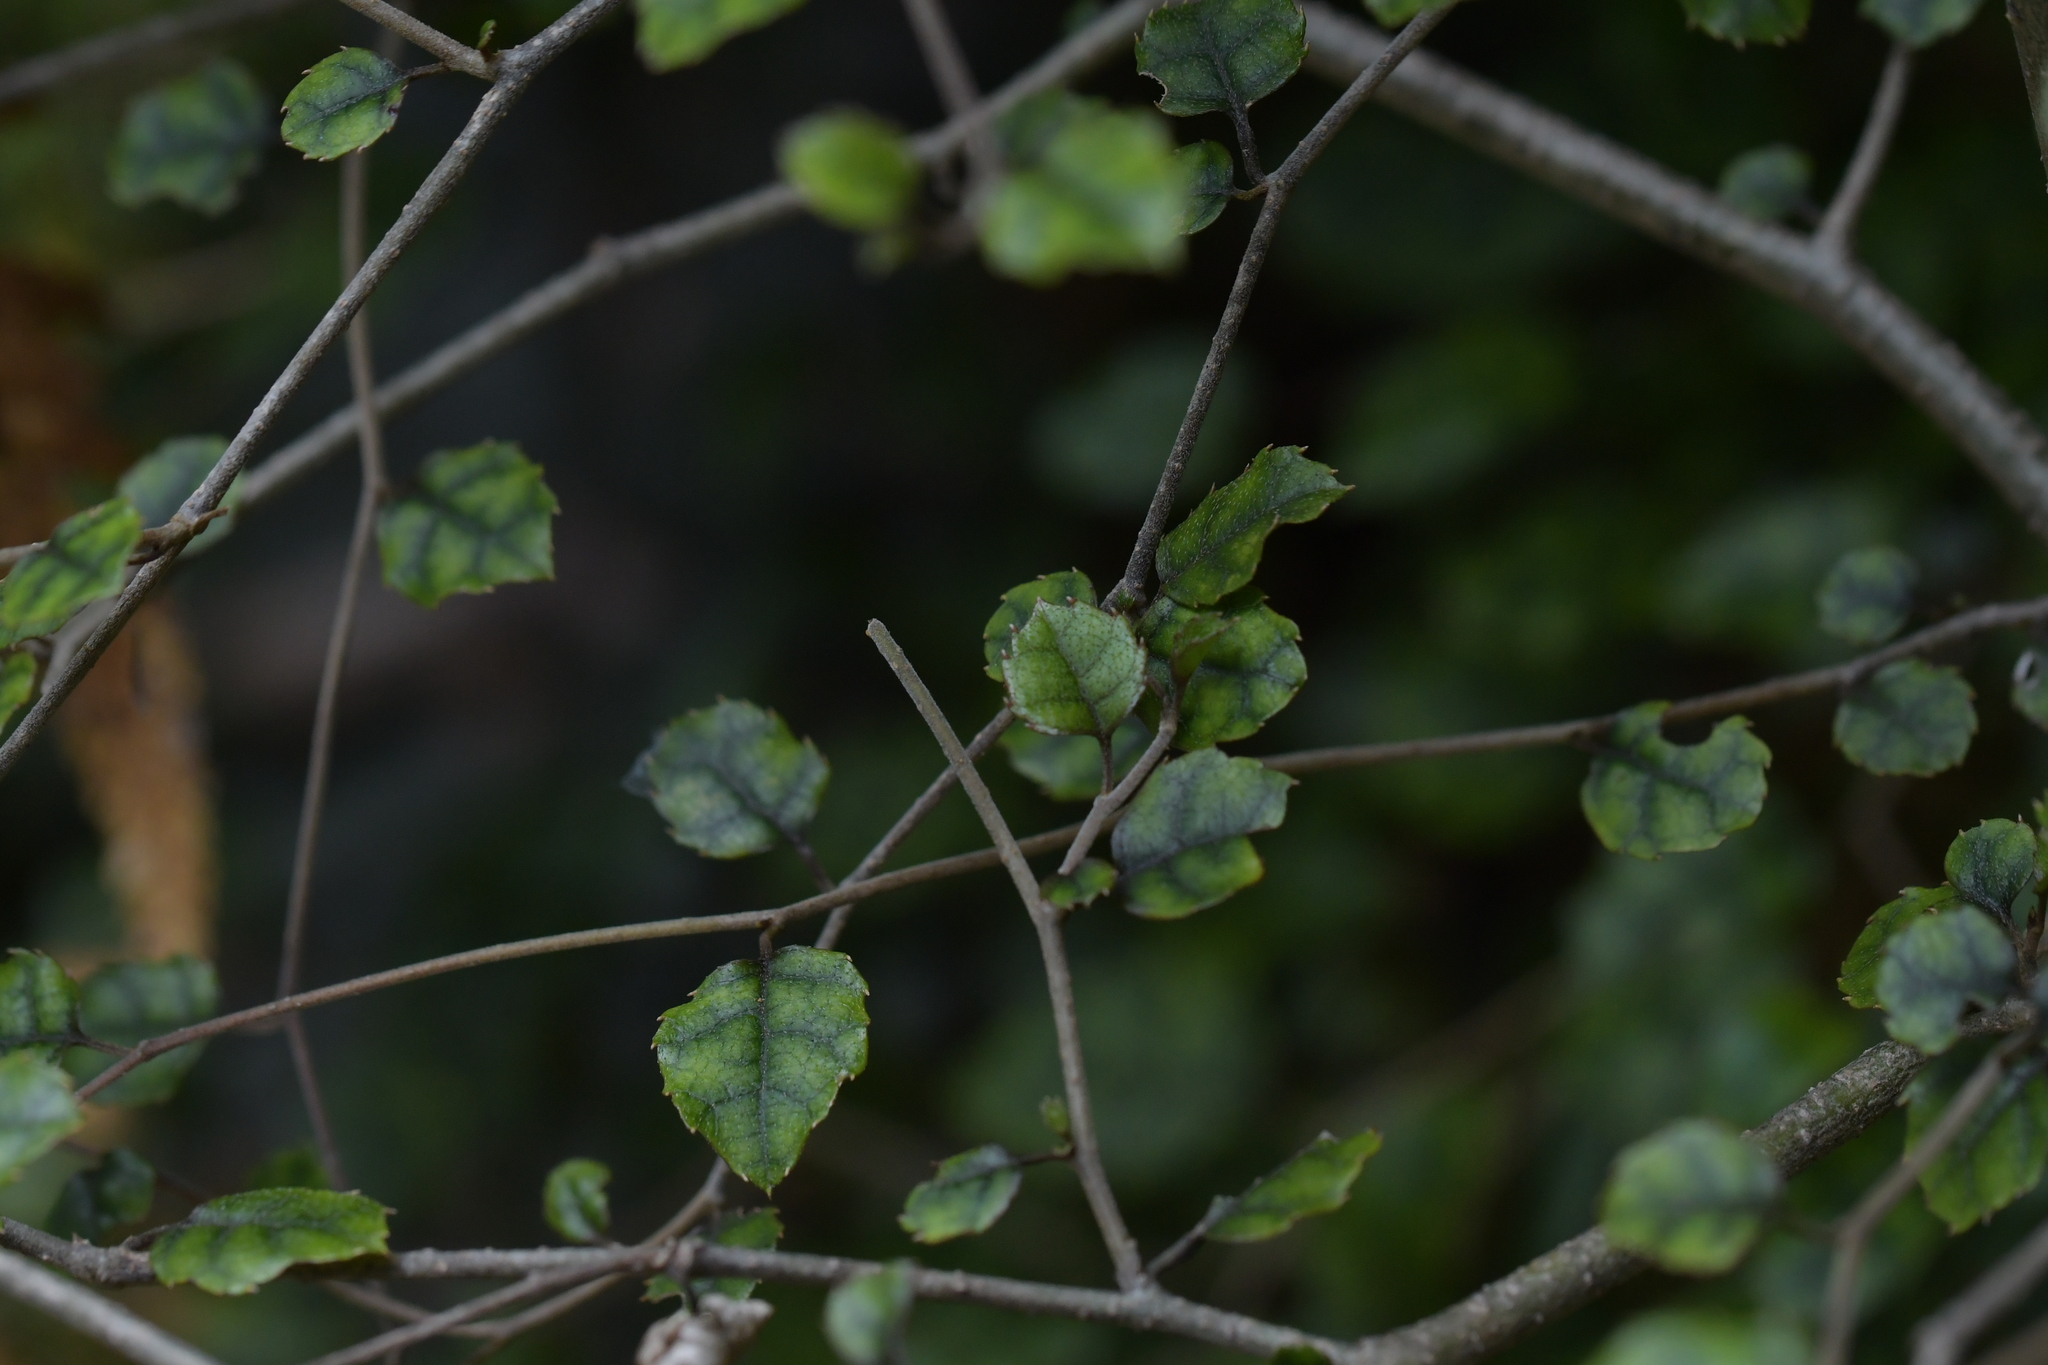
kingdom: Plantae
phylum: Tracheophyta
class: Magnoliopsida
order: Asterales
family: Rousseaceae
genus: Carpodetus
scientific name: Carpodetus serratus
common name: White mapau
